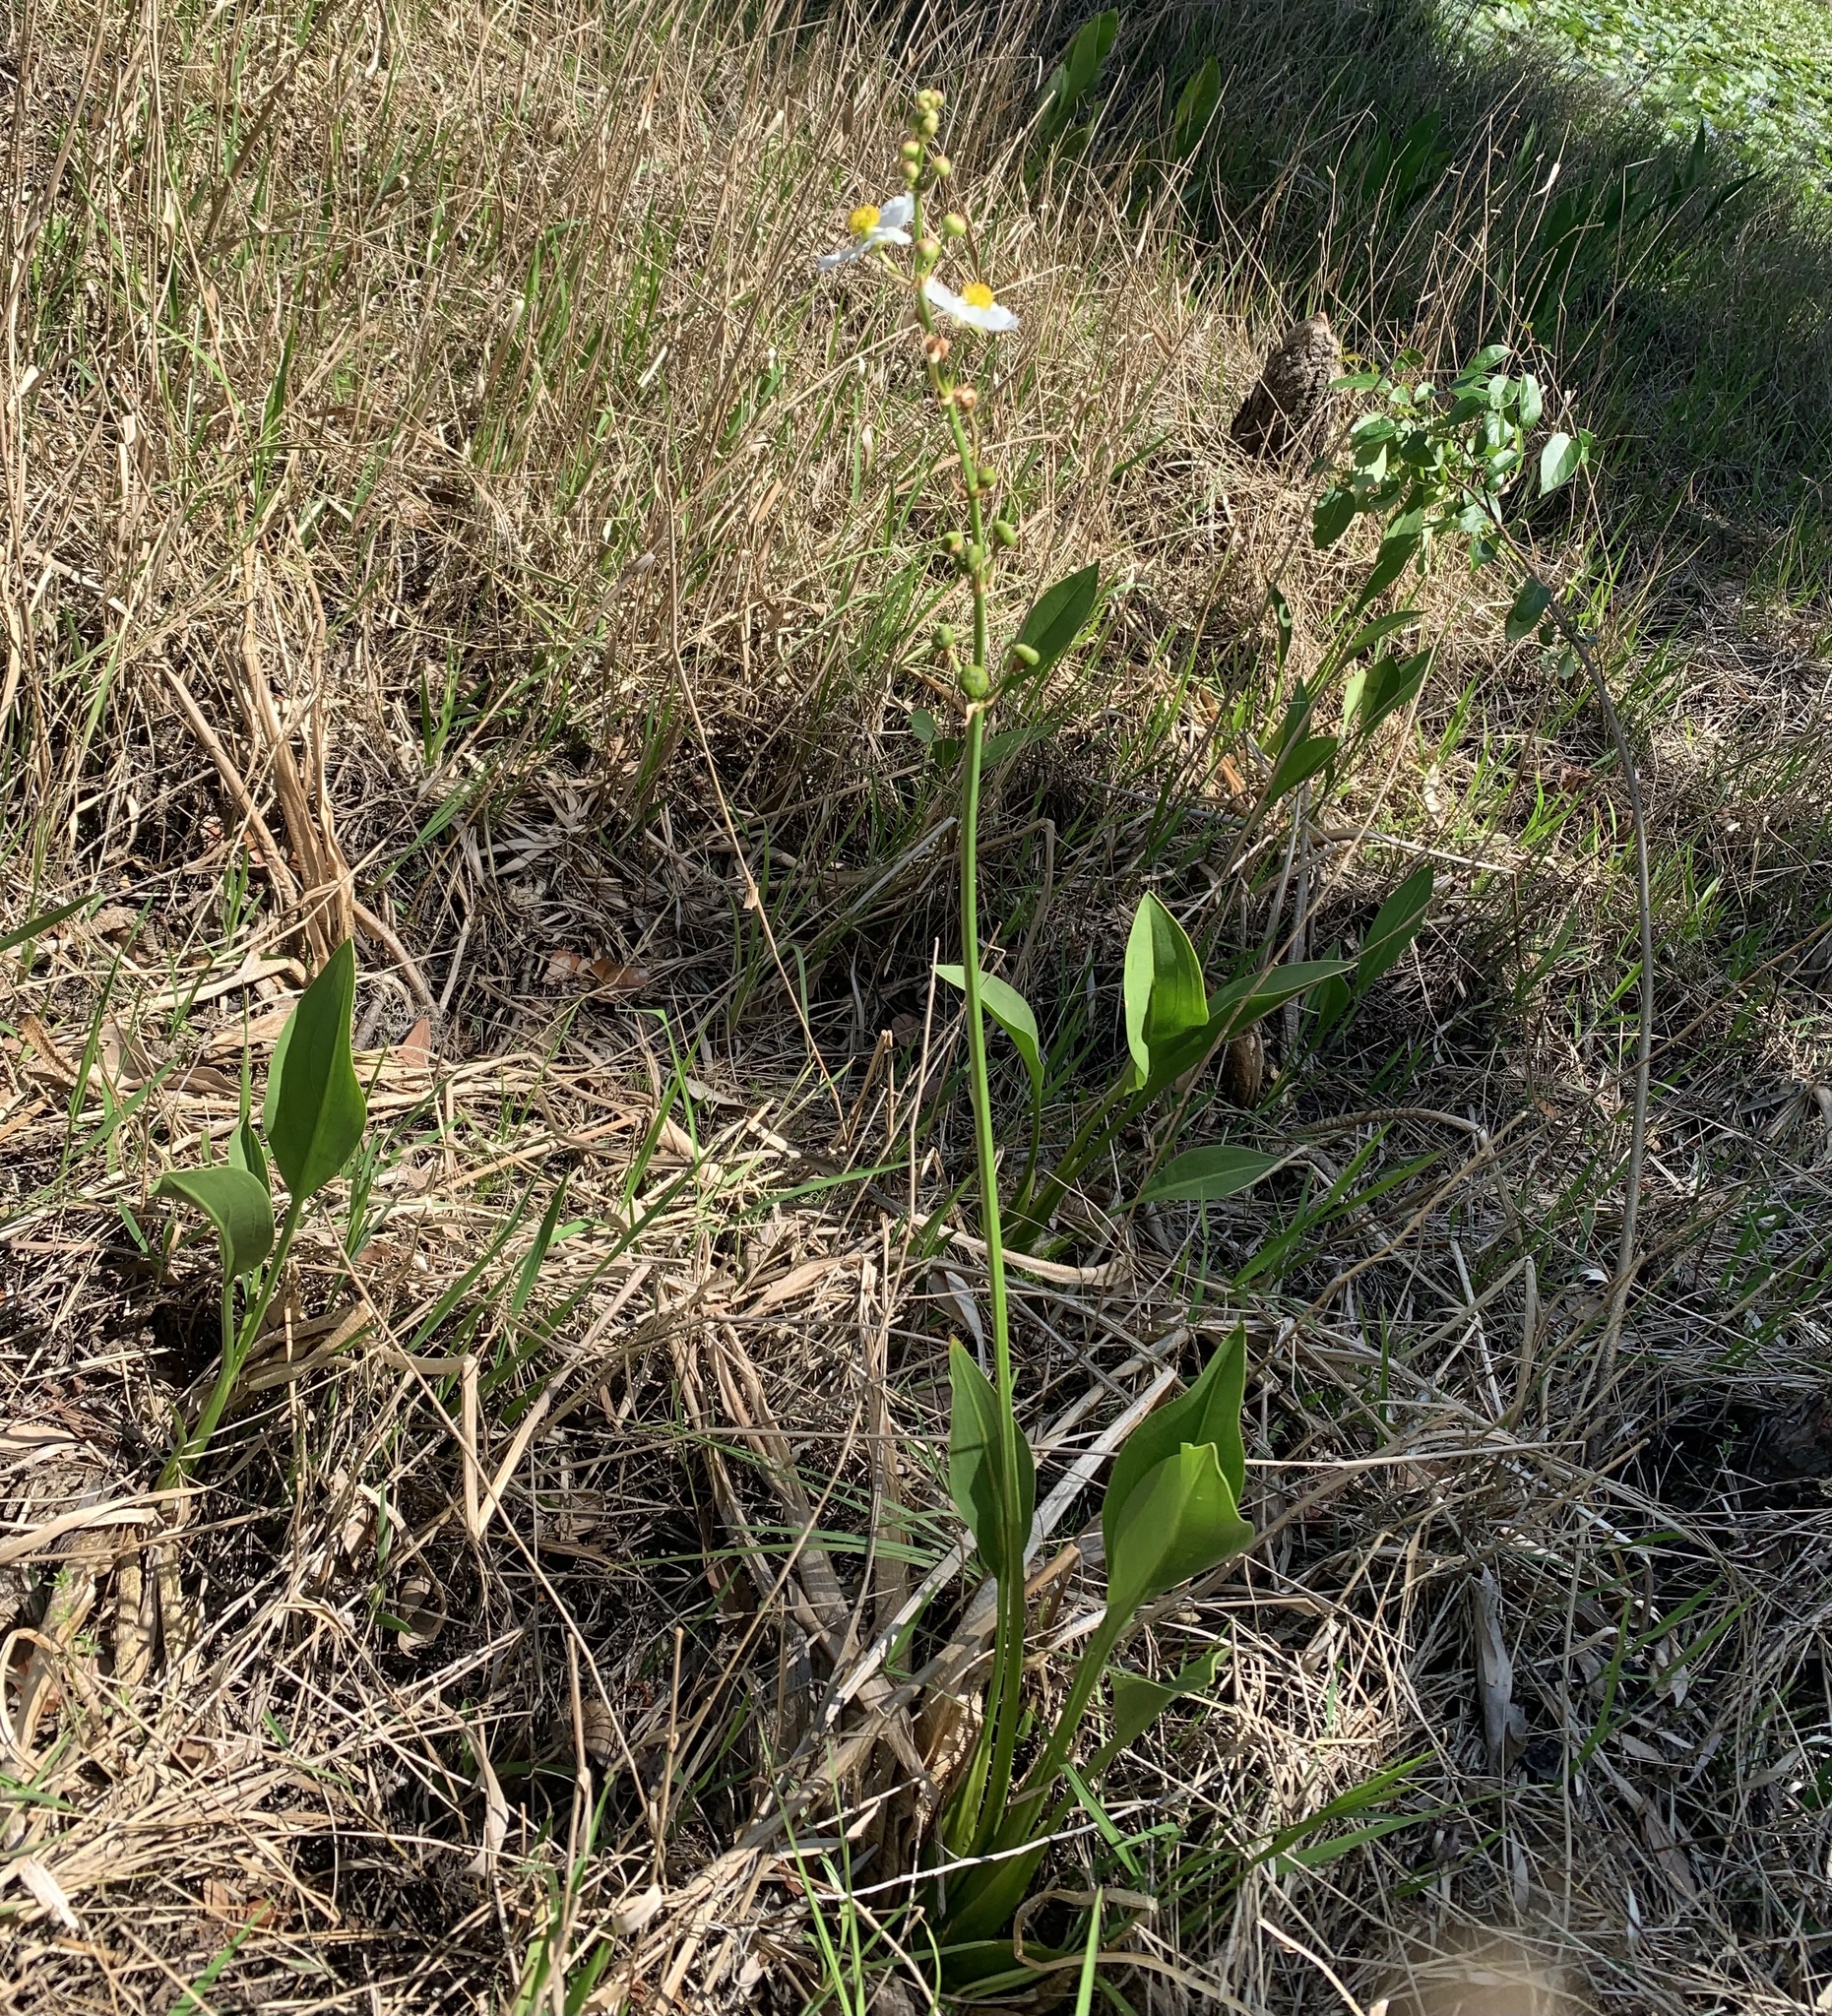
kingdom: Plantae
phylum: Tracheophyta
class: Liliopsida
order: Alismatales
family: Alismataceae
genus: Sagittaria
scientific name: Sagittaria lancifolia
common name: Lance-leaf arrowhead
